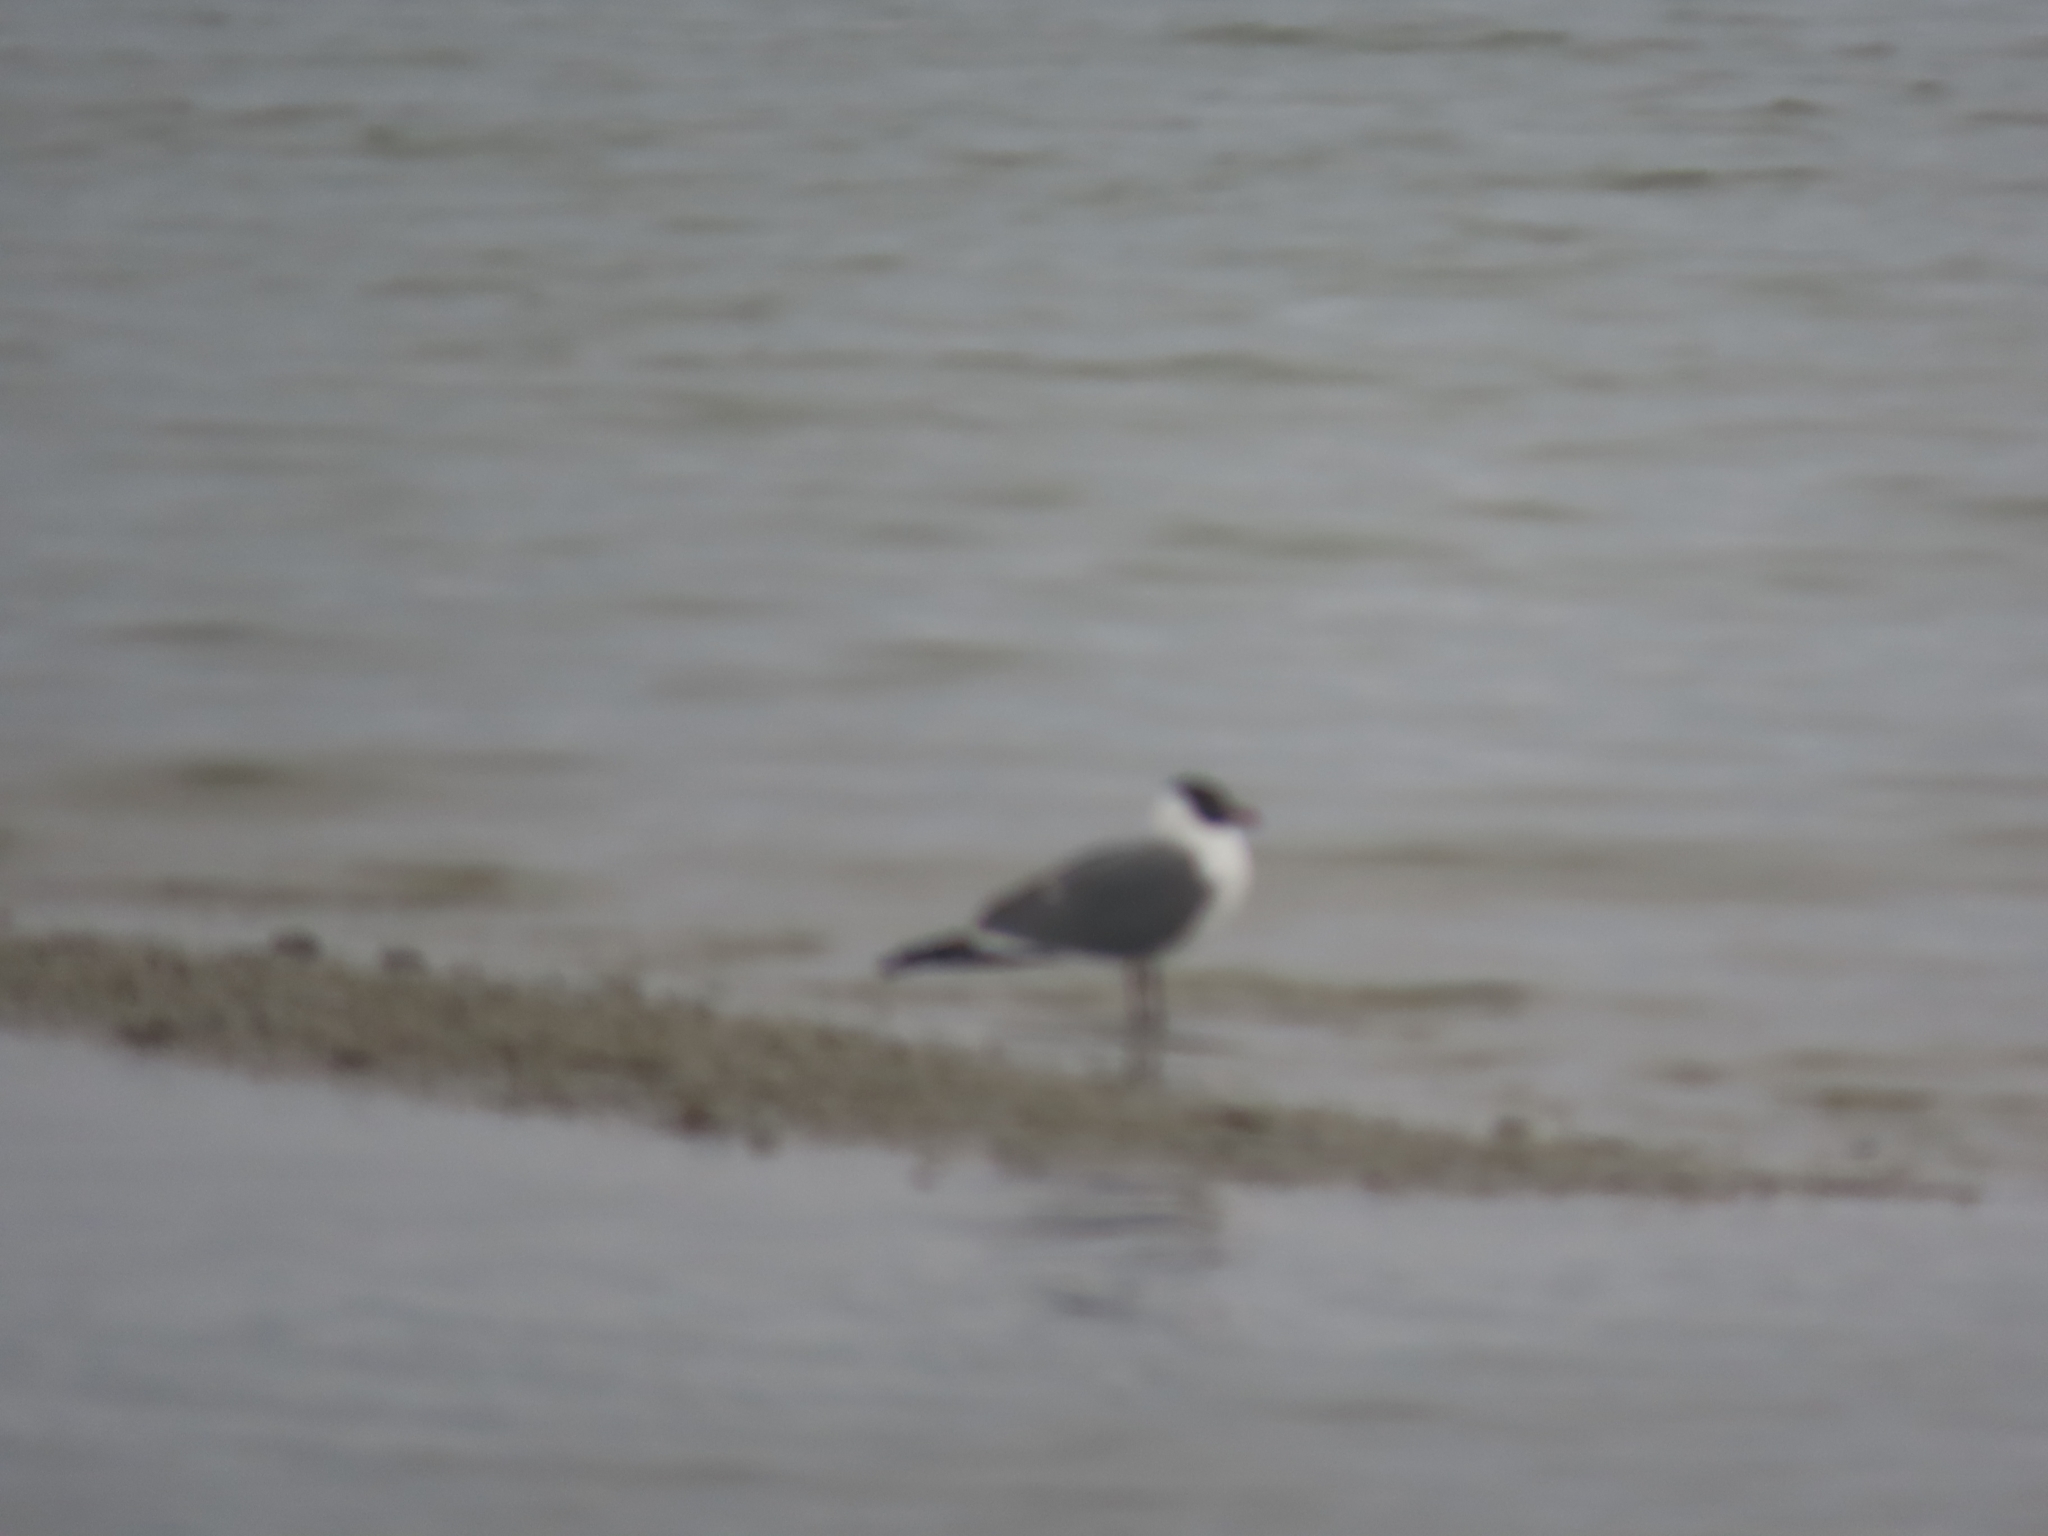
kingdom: Animalia
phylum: Chordata
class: Aves
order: Charadriiformes
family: Laridae
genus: Leucophaeus
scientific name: Leucophaeus atricilla
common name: Laughing gull
